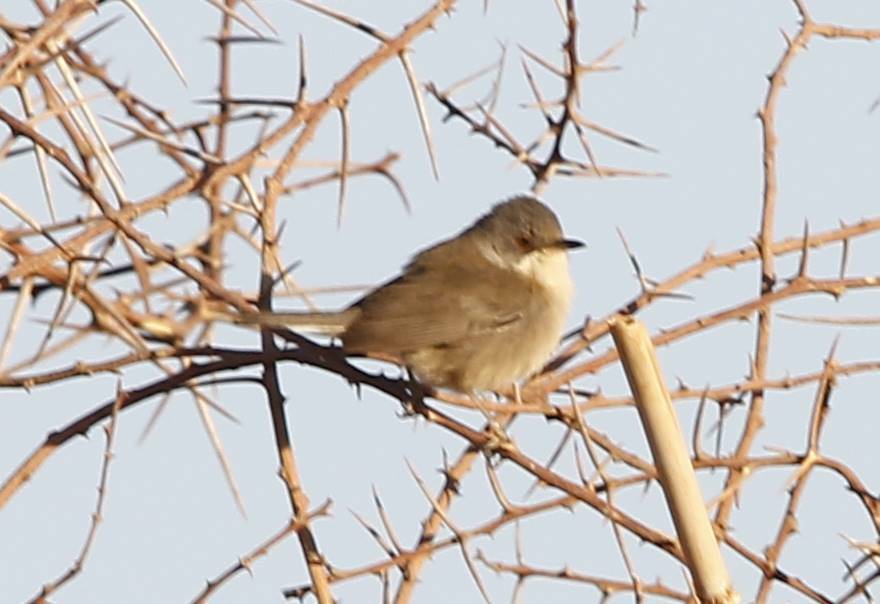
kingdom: Animalia
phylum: Chordata
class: Aves
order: Passeriformes
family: Sylviidae
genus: Curruca
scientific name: Curruca melanocephala
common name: Sardinian warbler
